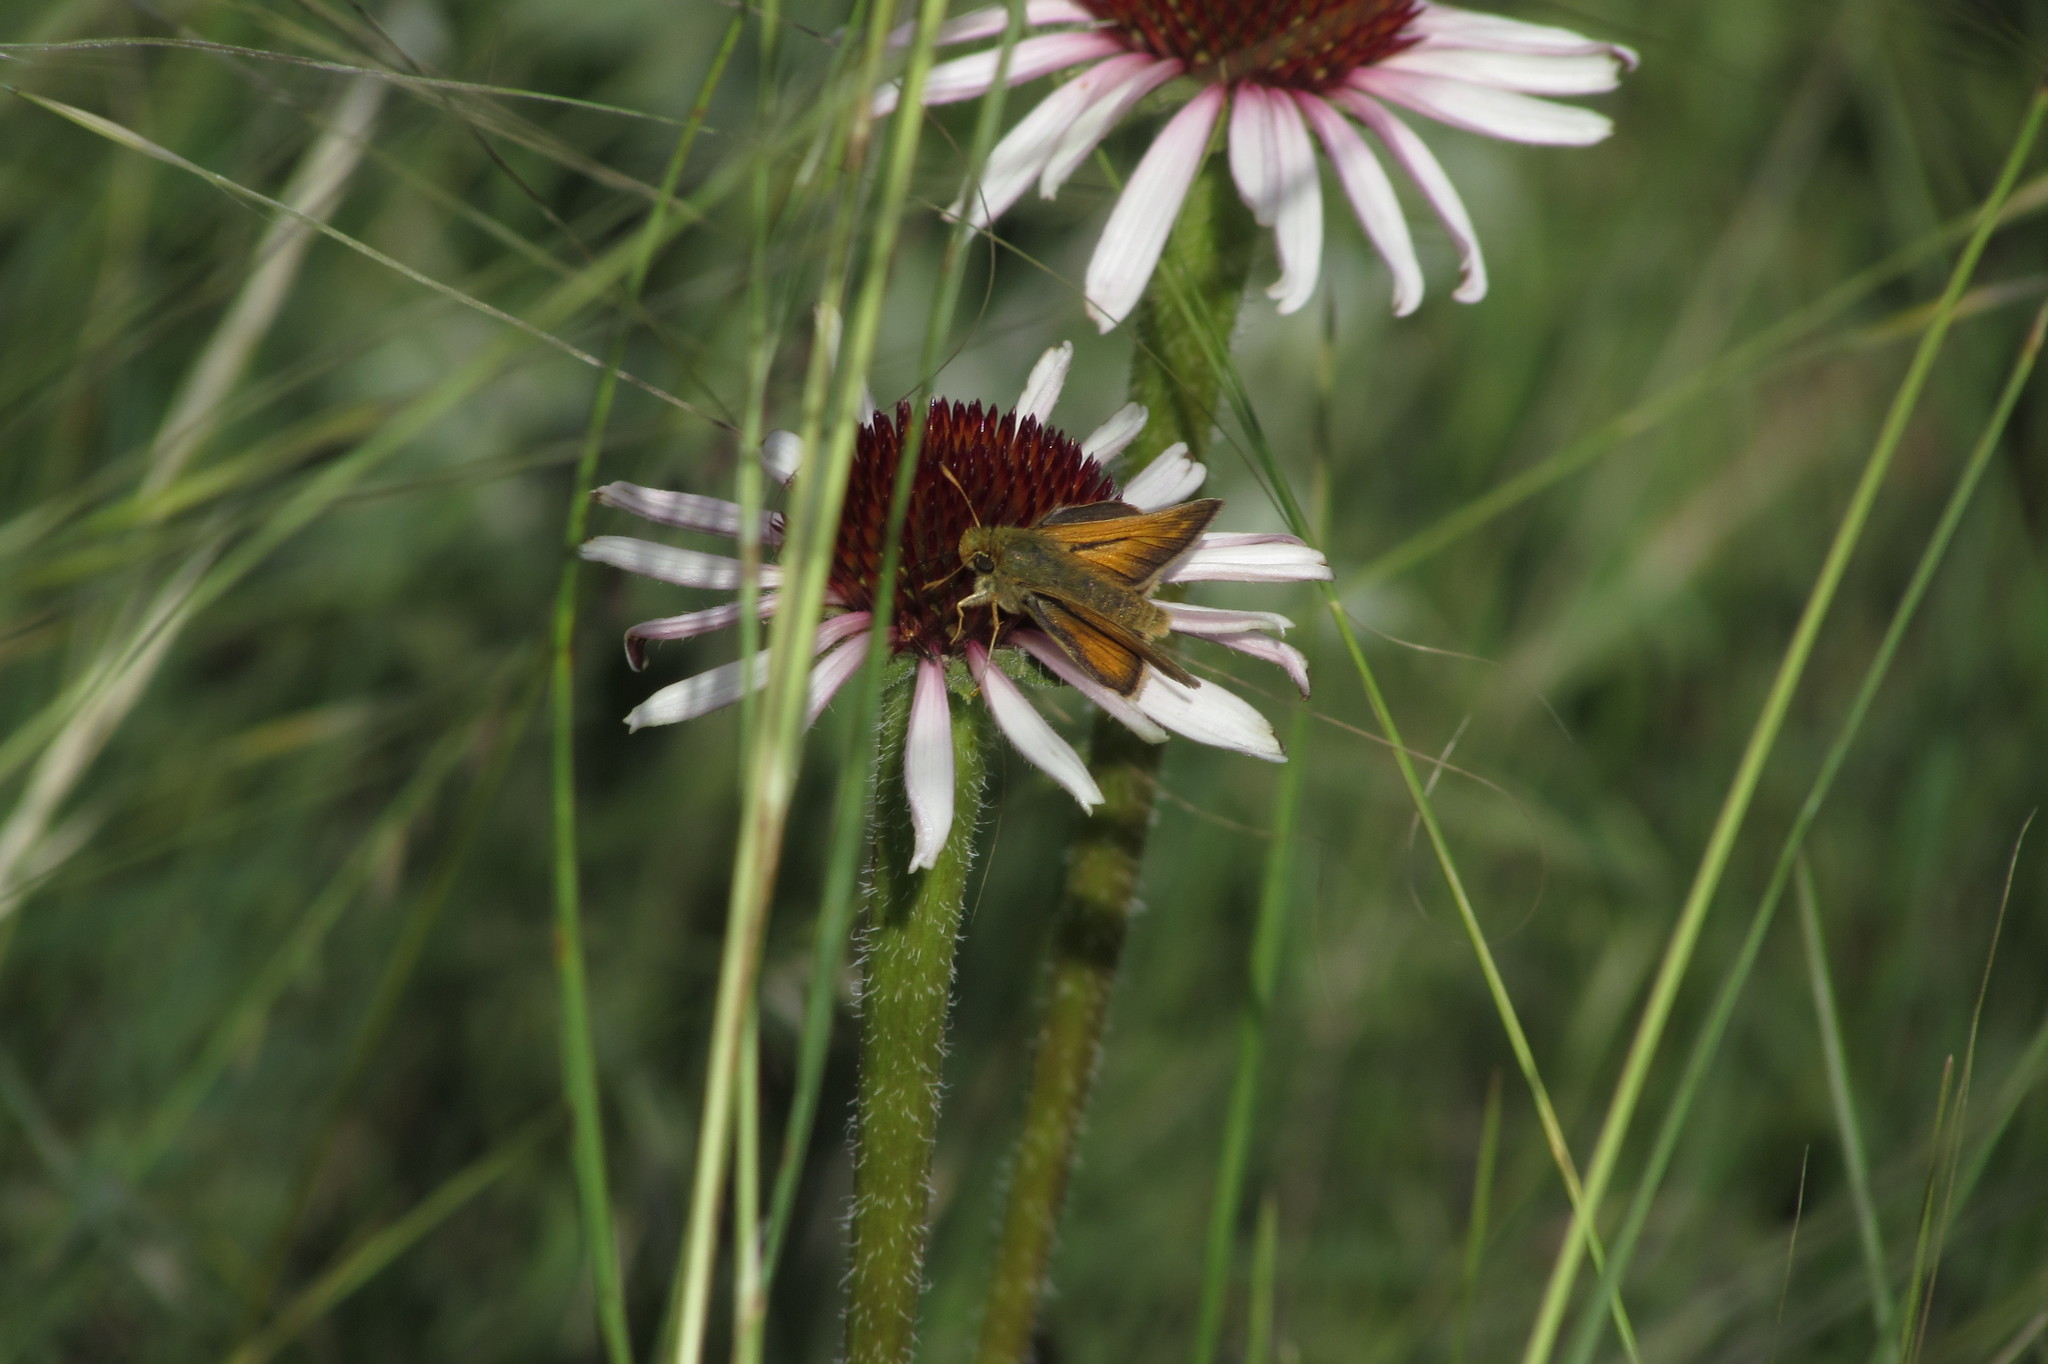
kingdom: Animalia
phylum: Arthropoda
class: Insecta
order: Lepidoptera
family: Hesperiidae
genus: Hesperia
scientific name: Hesperia dacotae
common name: Dakota skipper
